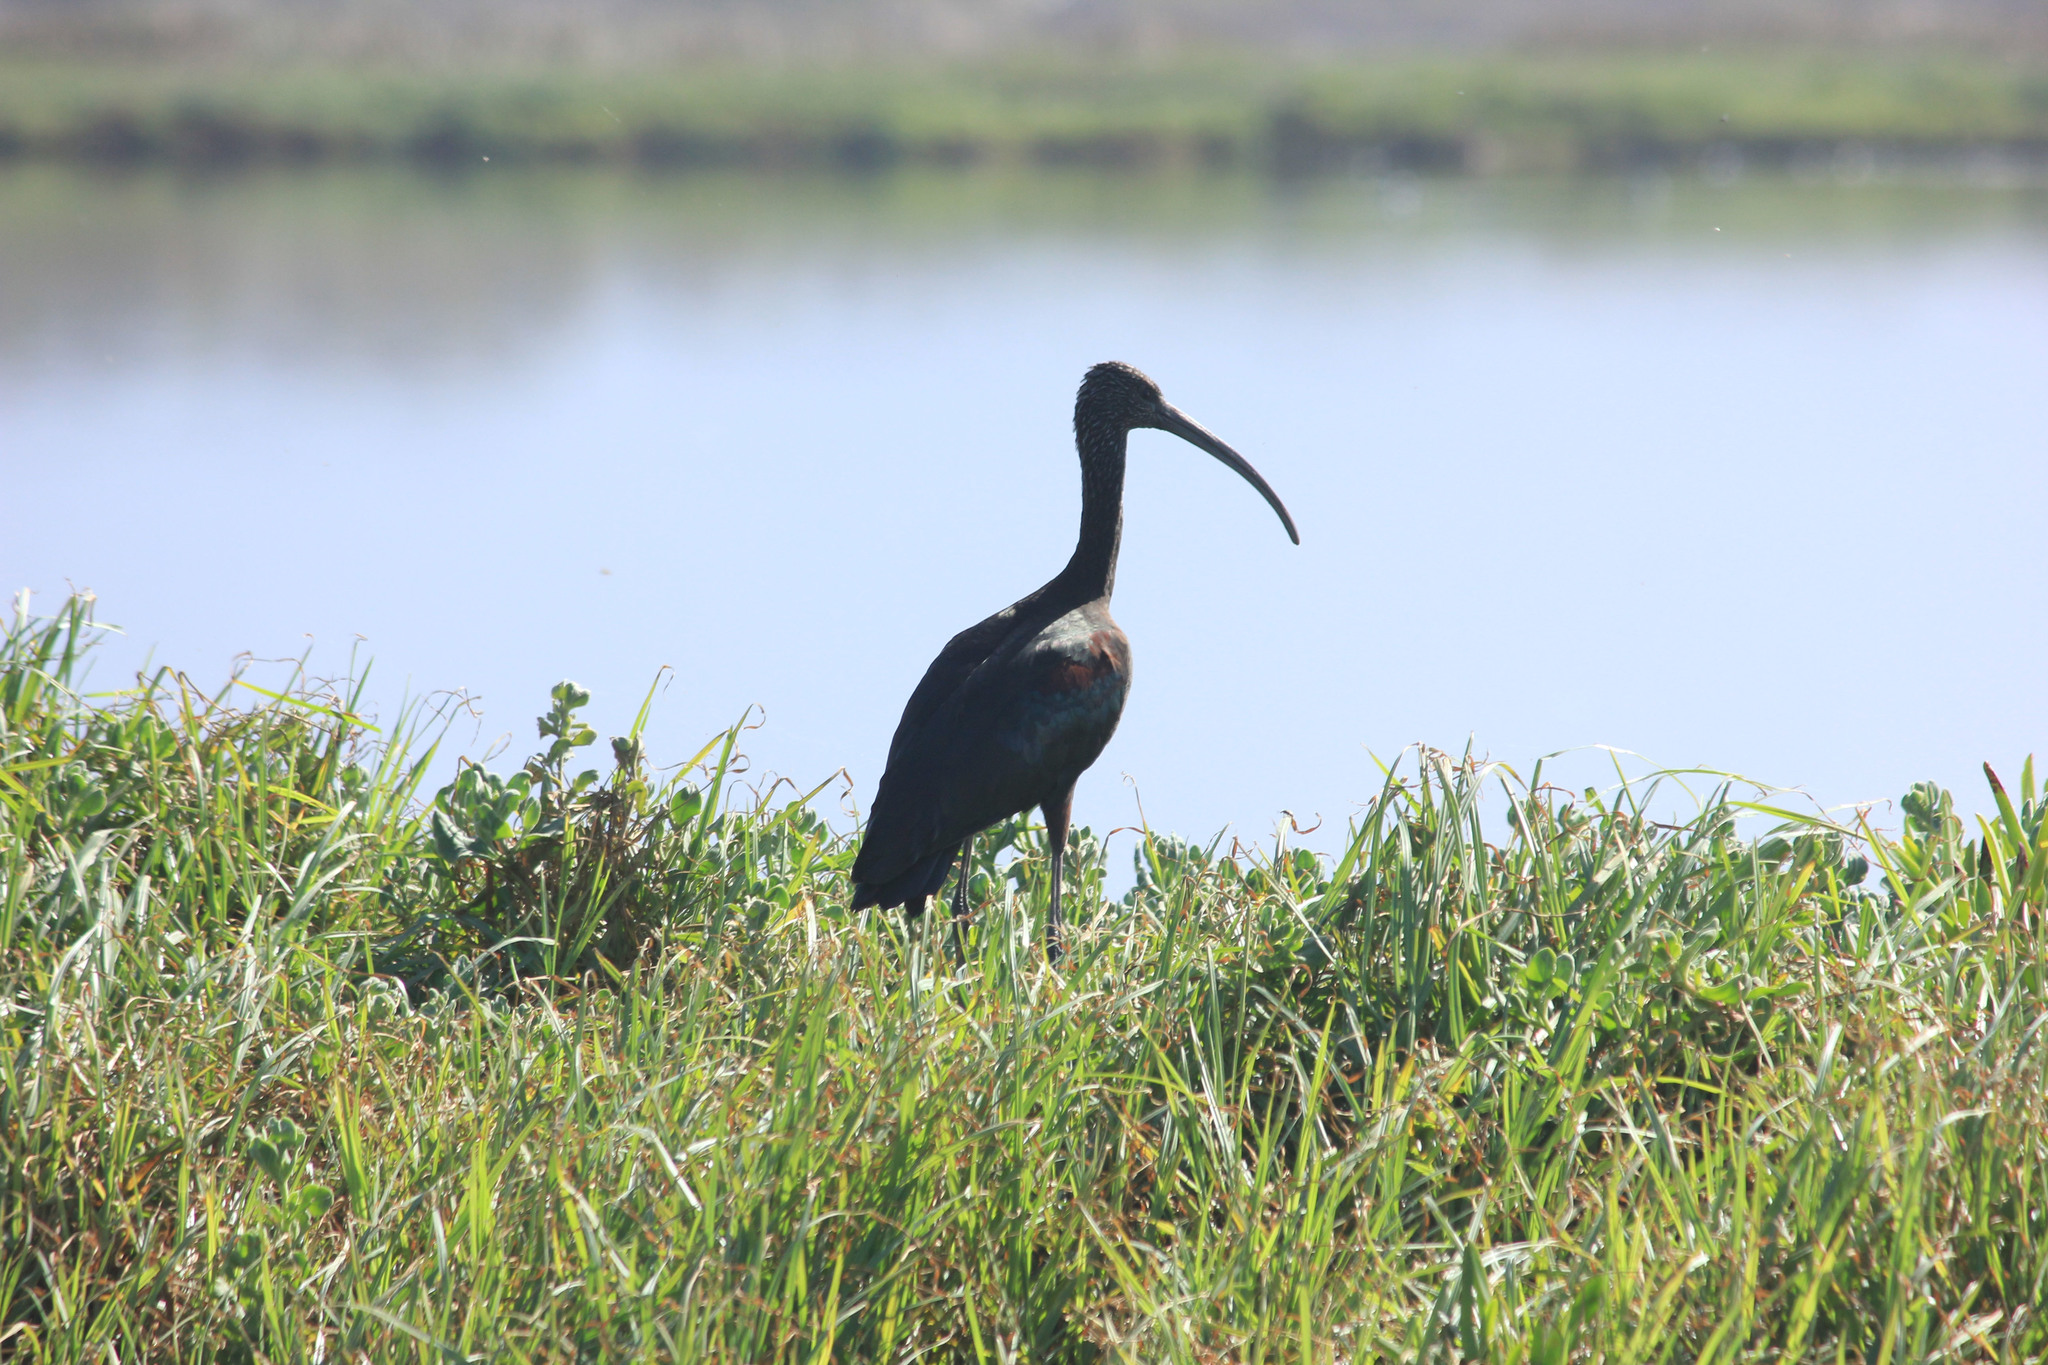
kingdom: Animalia
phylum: Chordata
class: Aves
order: Pelecaniformes
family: Threskiornithidae
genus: Plegadis
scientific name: Plegadis falcinellus
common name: Glossy ibis
